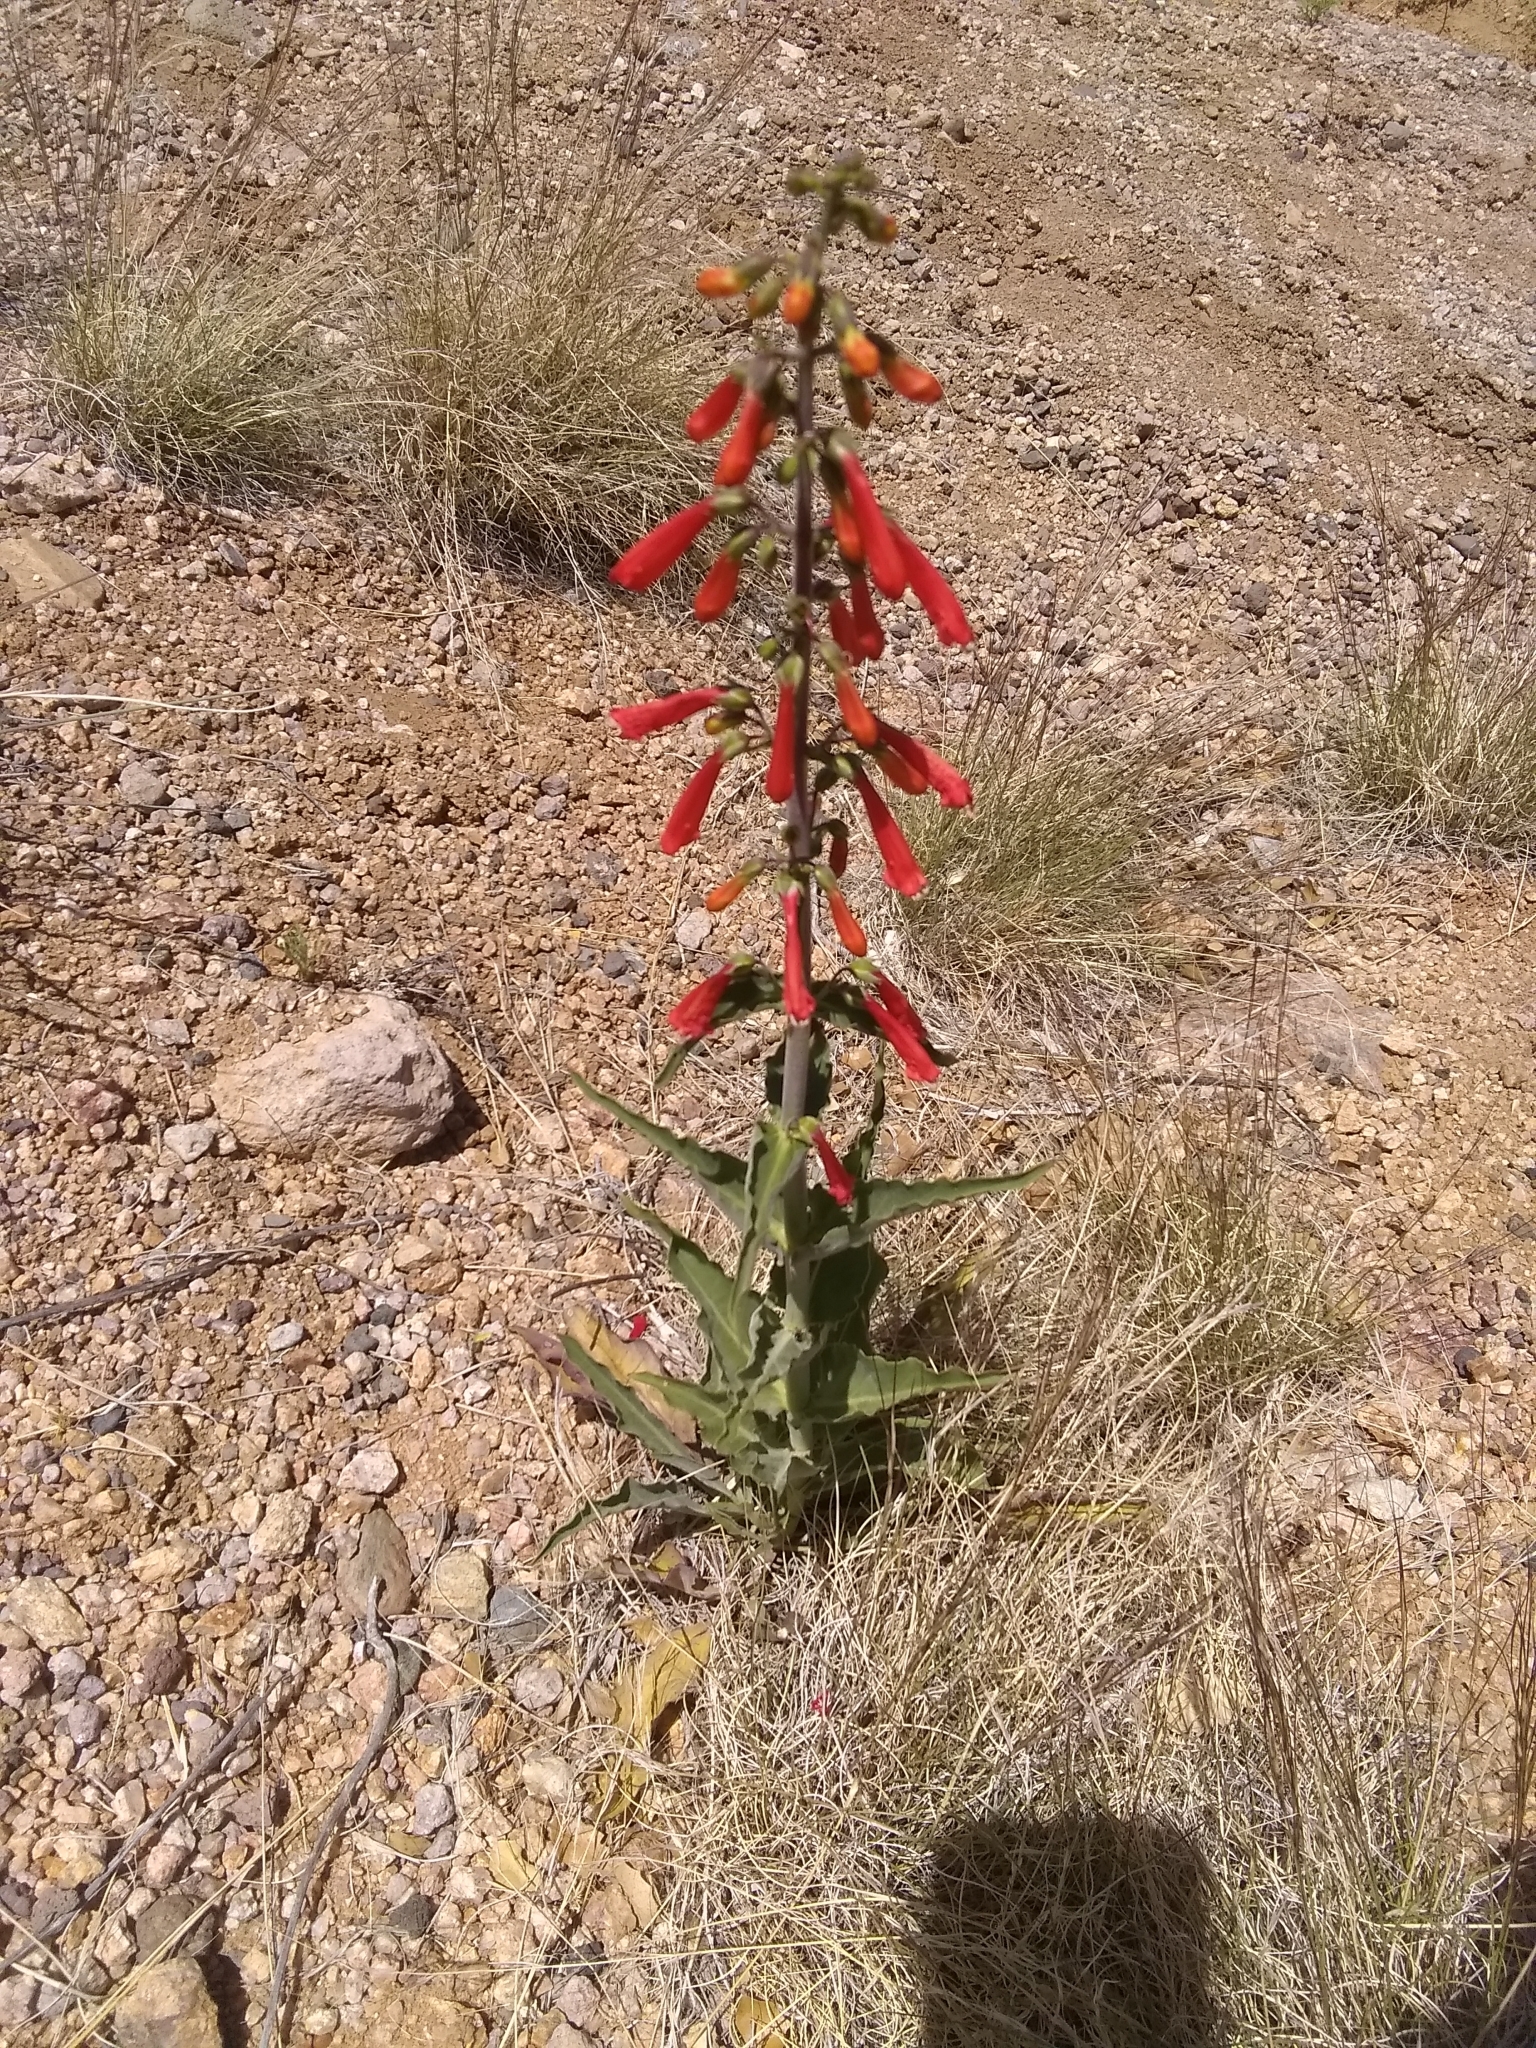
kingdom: Plantae
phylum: Tracheophyta
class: Magnoliopsida
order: Lamiales
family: Plantaginaceae
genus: Penstemon
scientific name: Penstemon eatonii
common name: Eaton's penstemon
